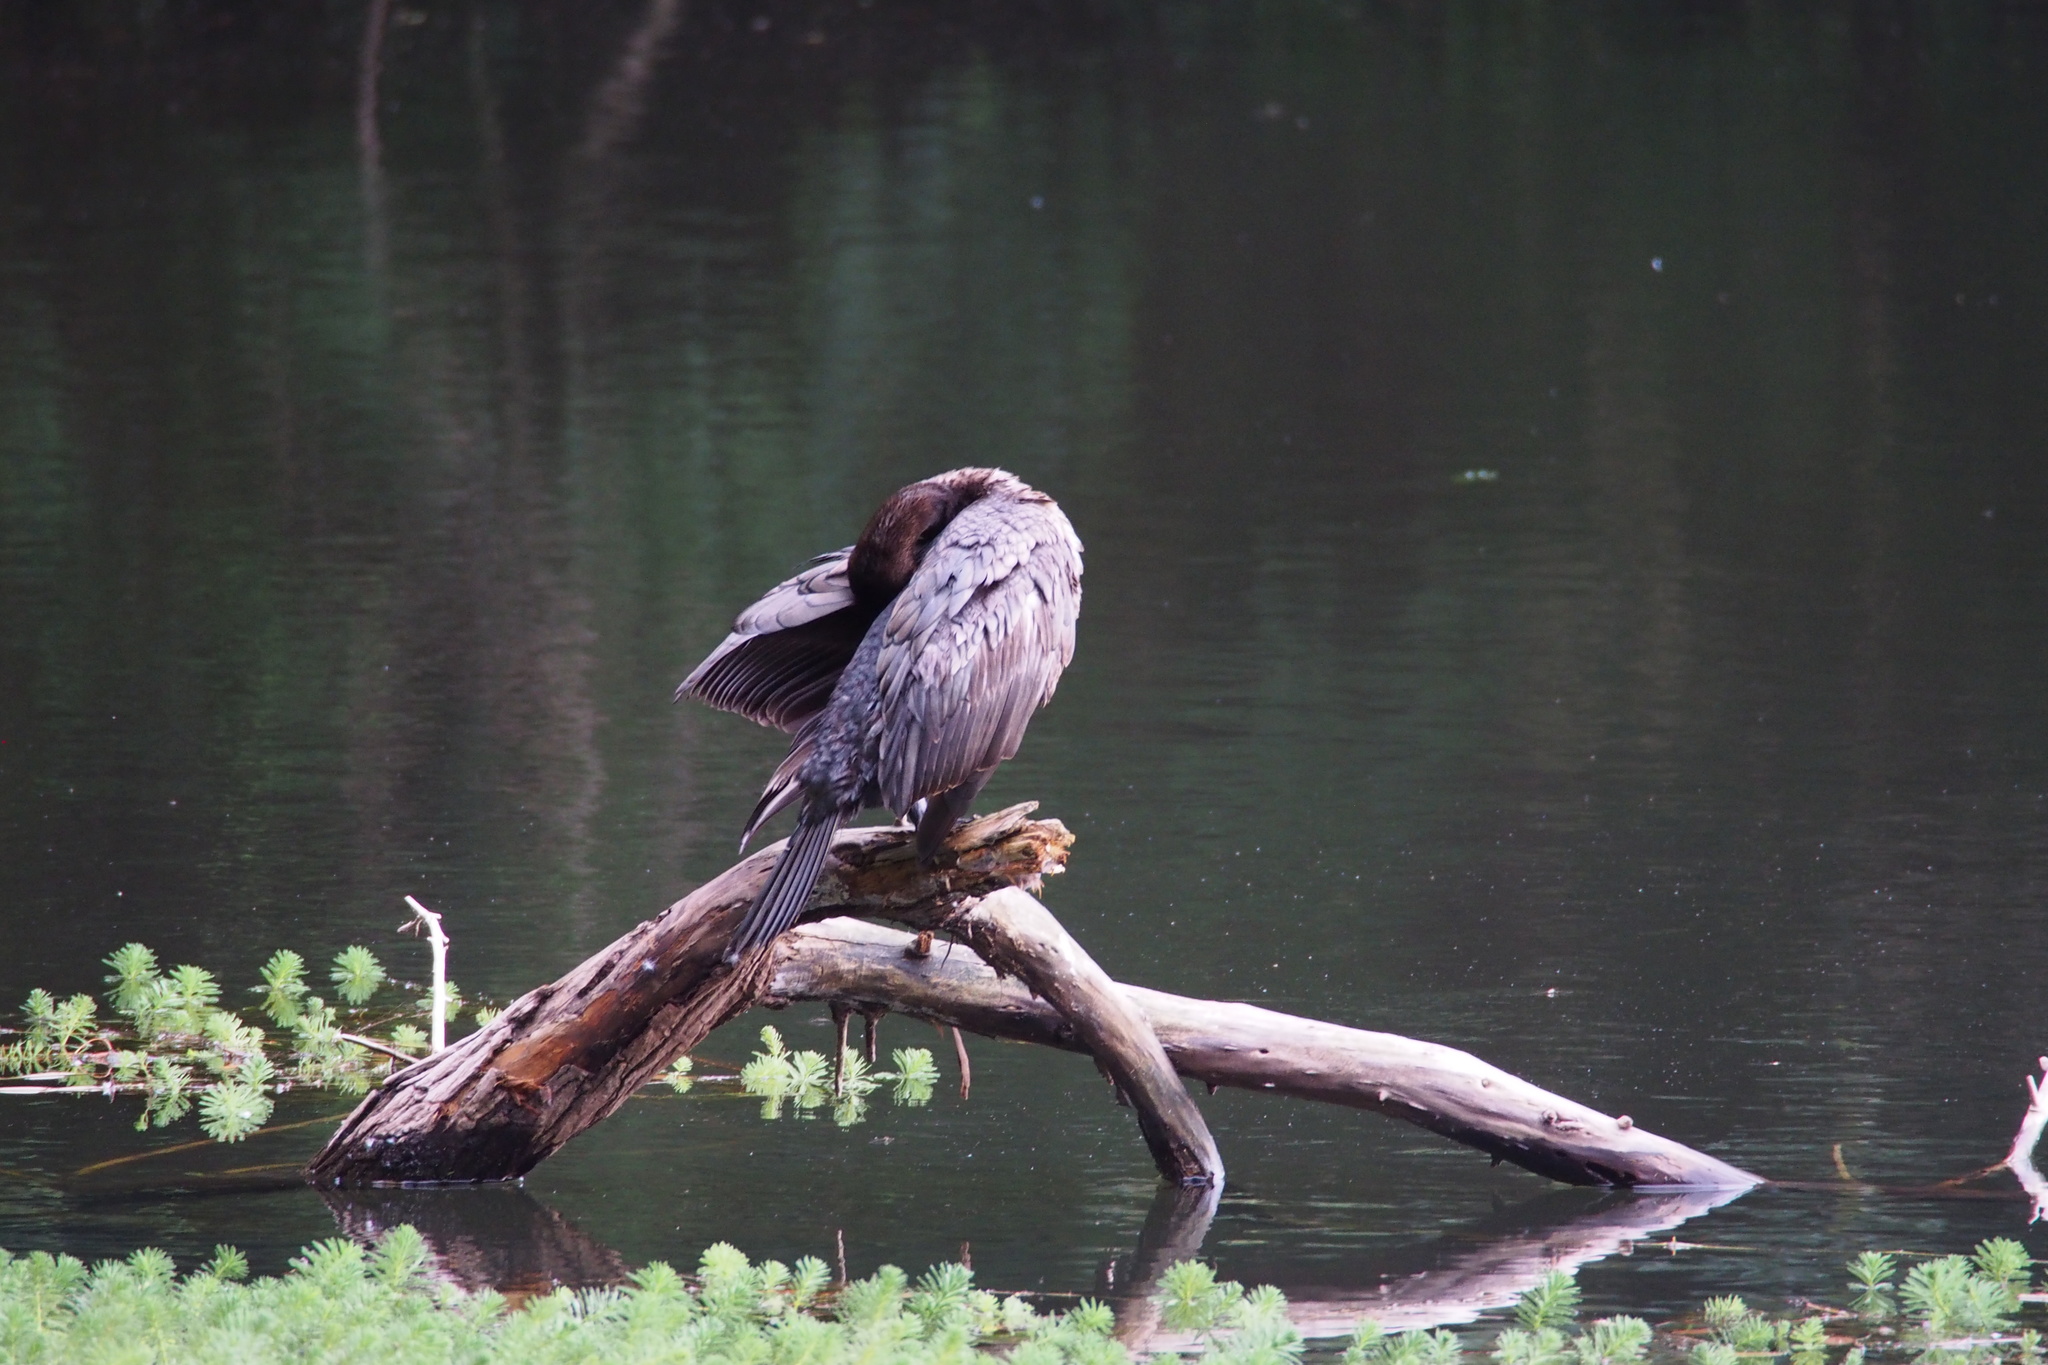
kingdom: Animalia
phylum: Chordata
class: Aves
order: Suliformes
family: Phalacrocoracidae
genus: Phalacrocorax
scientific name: Phalacrocorax carbo
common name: Great cormorant
